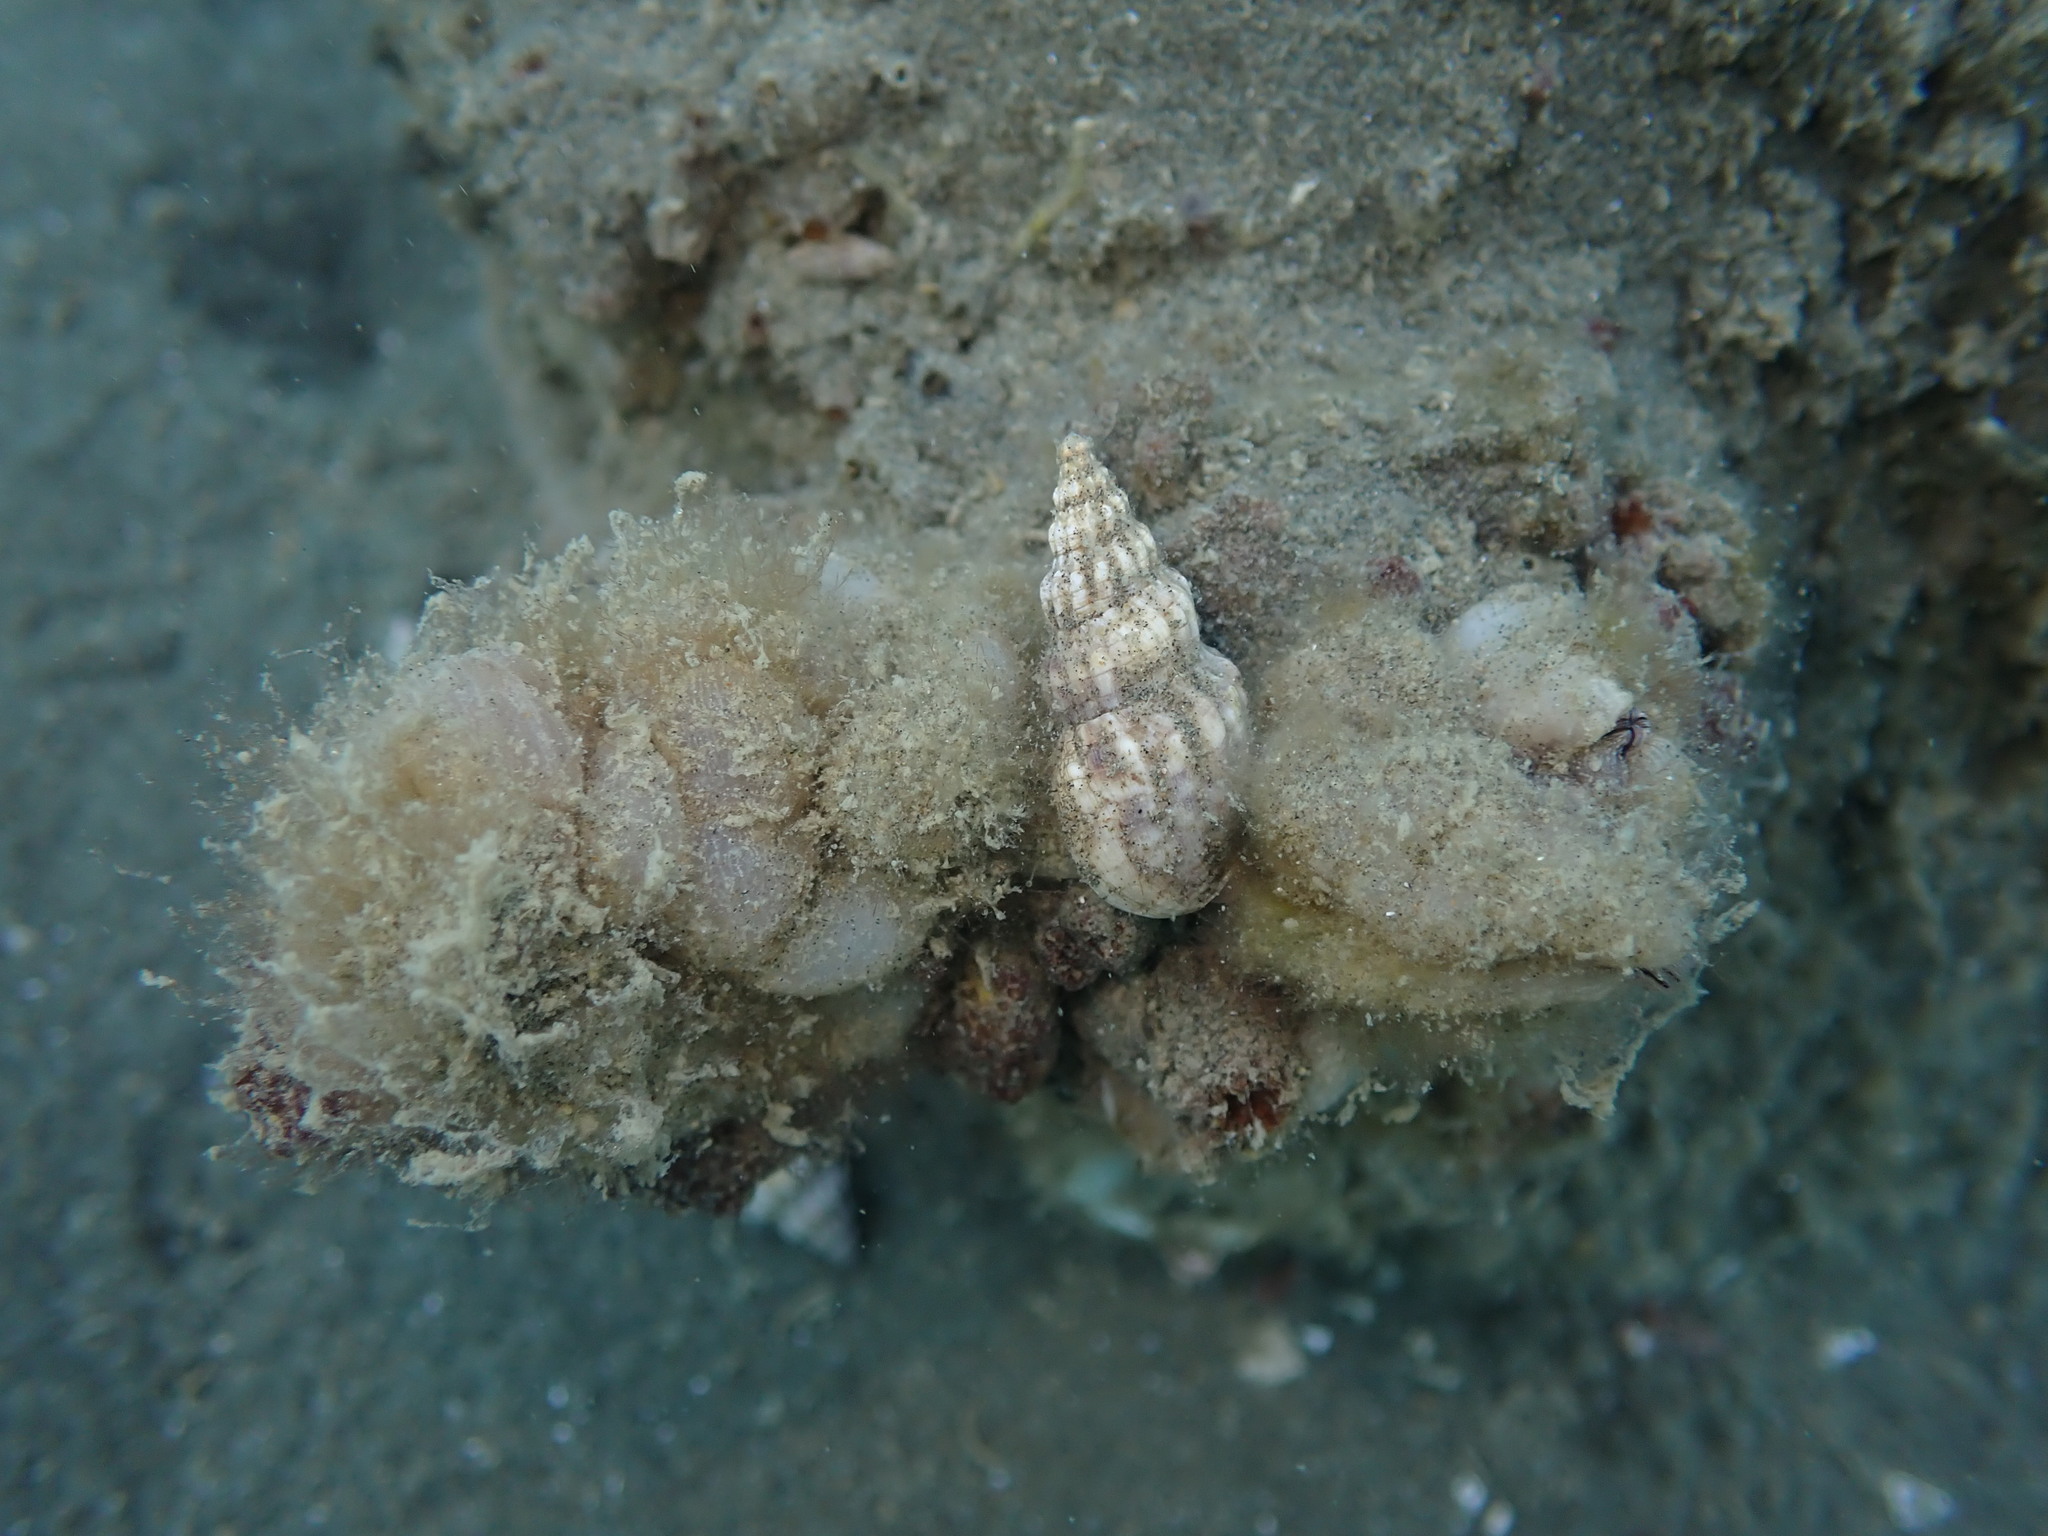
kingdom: Animalia
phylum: Chordata
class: Ascidiacea
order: Stolidobranchia
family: Styelidae
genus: Styela
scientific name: Styela plicata
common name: Pleated tunicate
